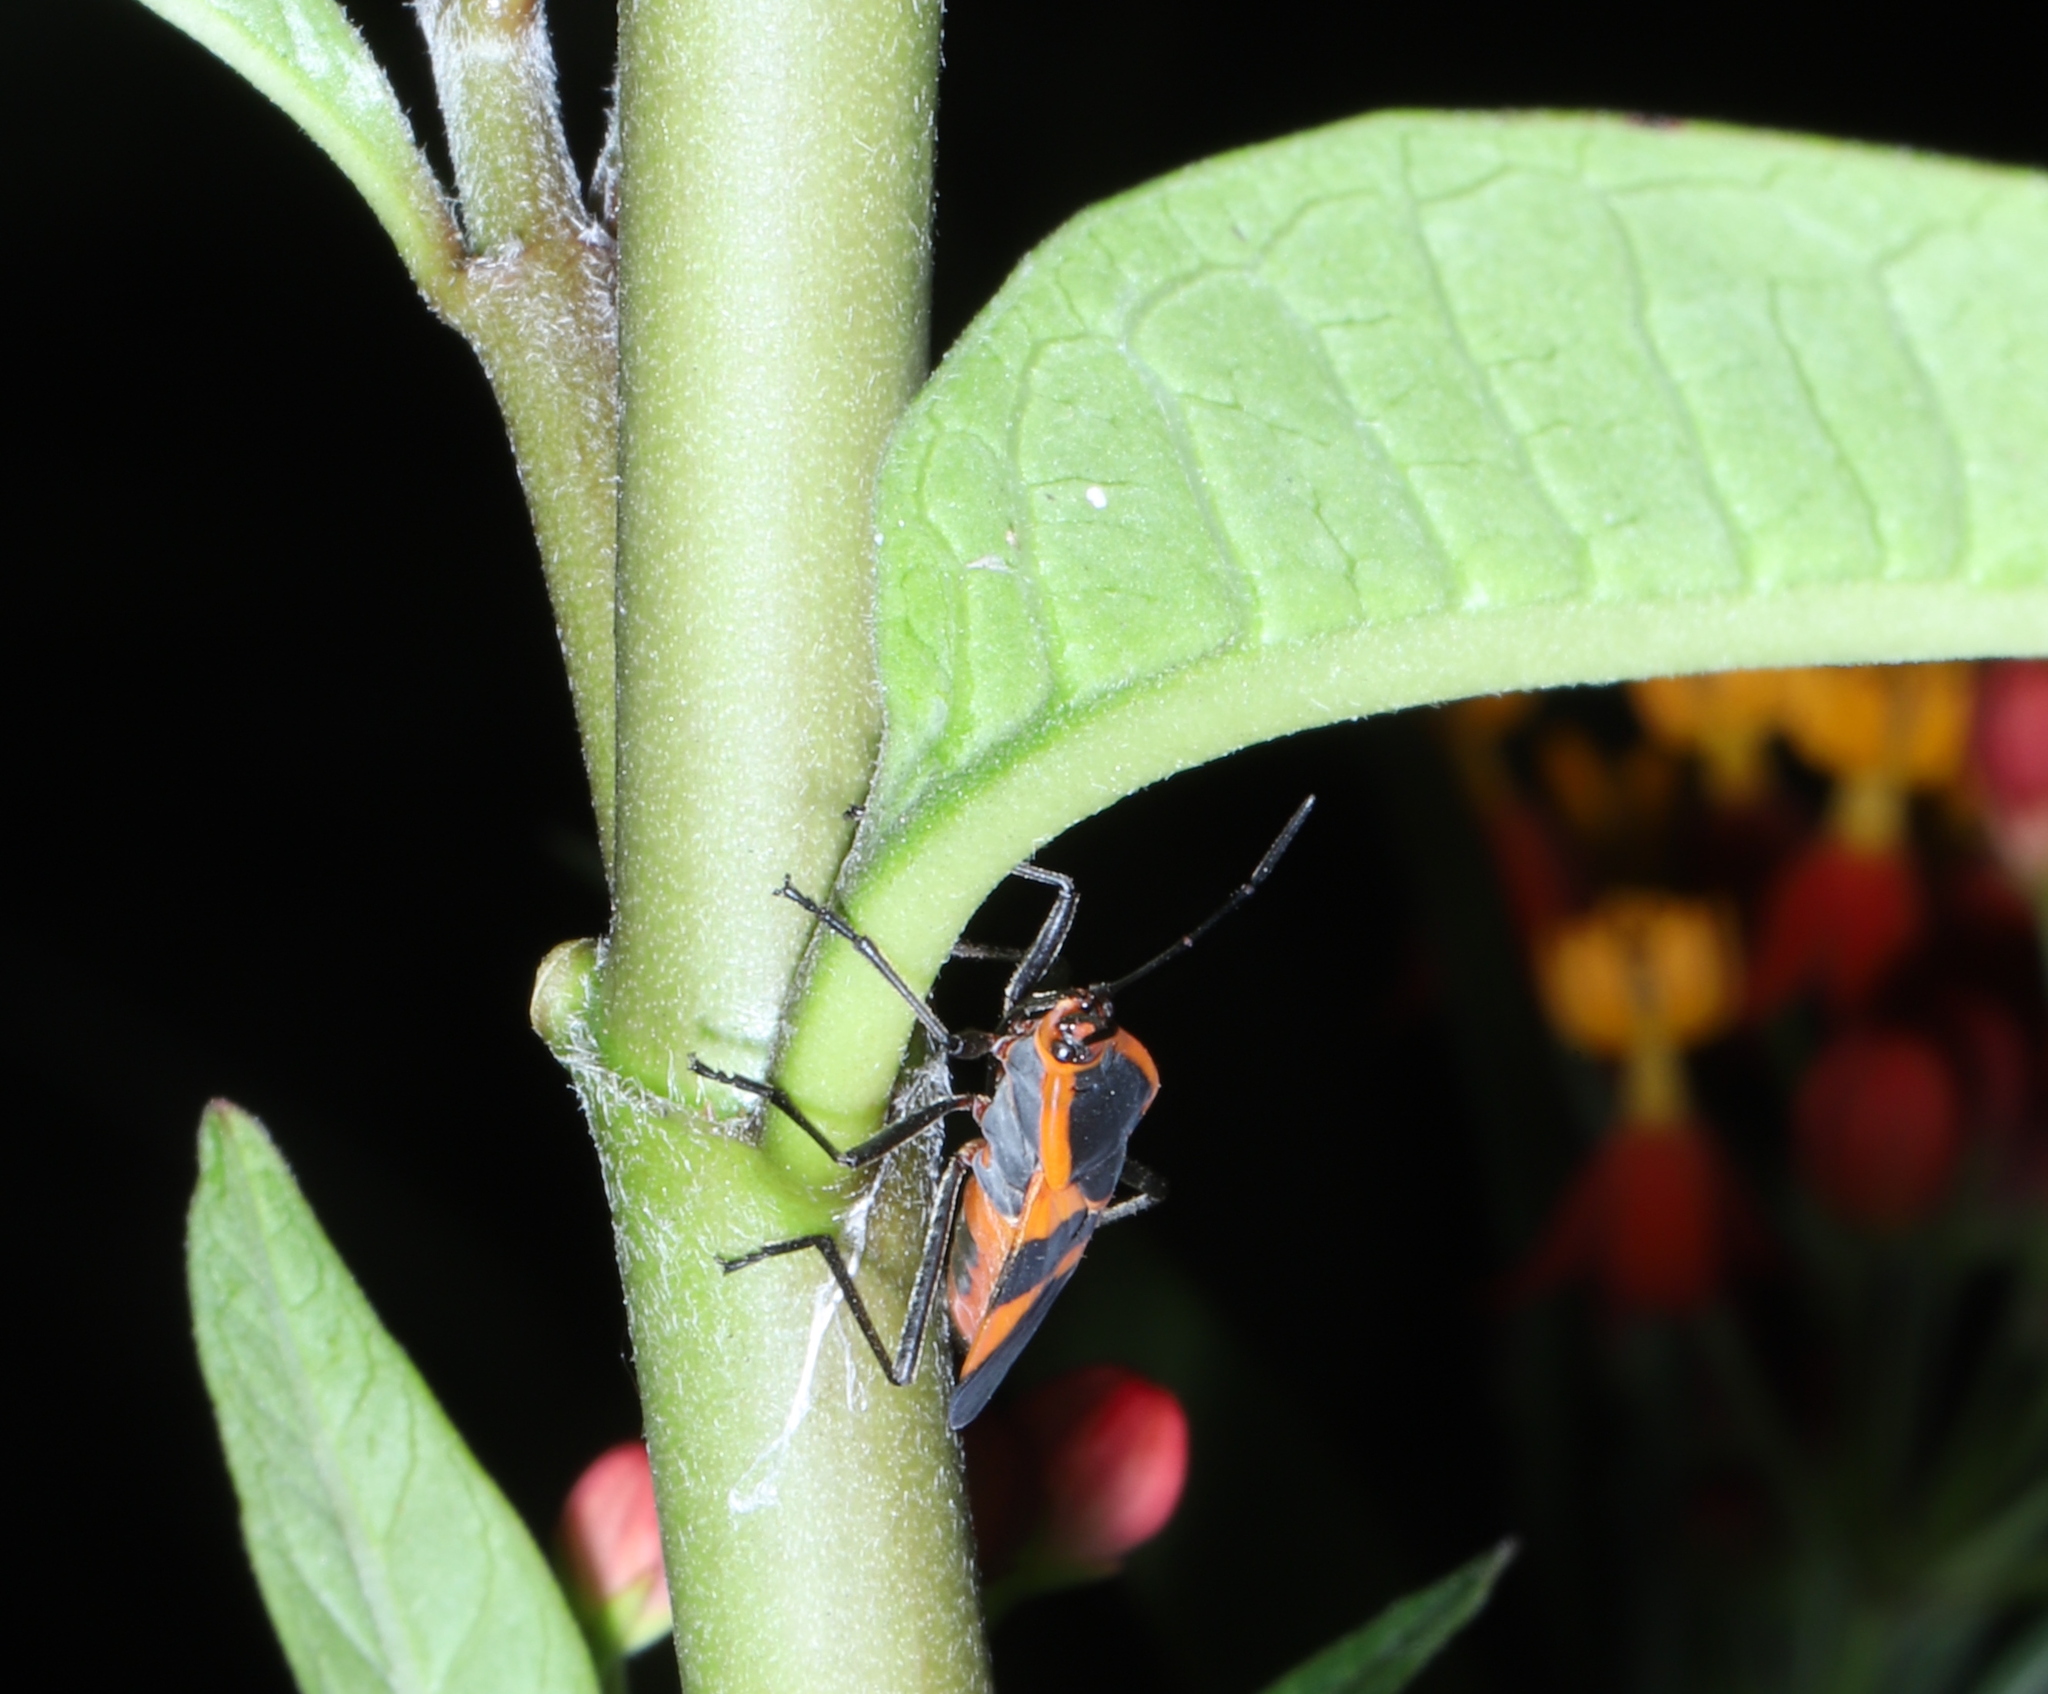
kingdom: Animalia
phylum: Arthropoda
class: Insecta
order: Hemiptera
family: Lygaeidae
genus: Oncopeltus
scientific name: Oncopeltus fasciatus
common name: Large milkweed bug
